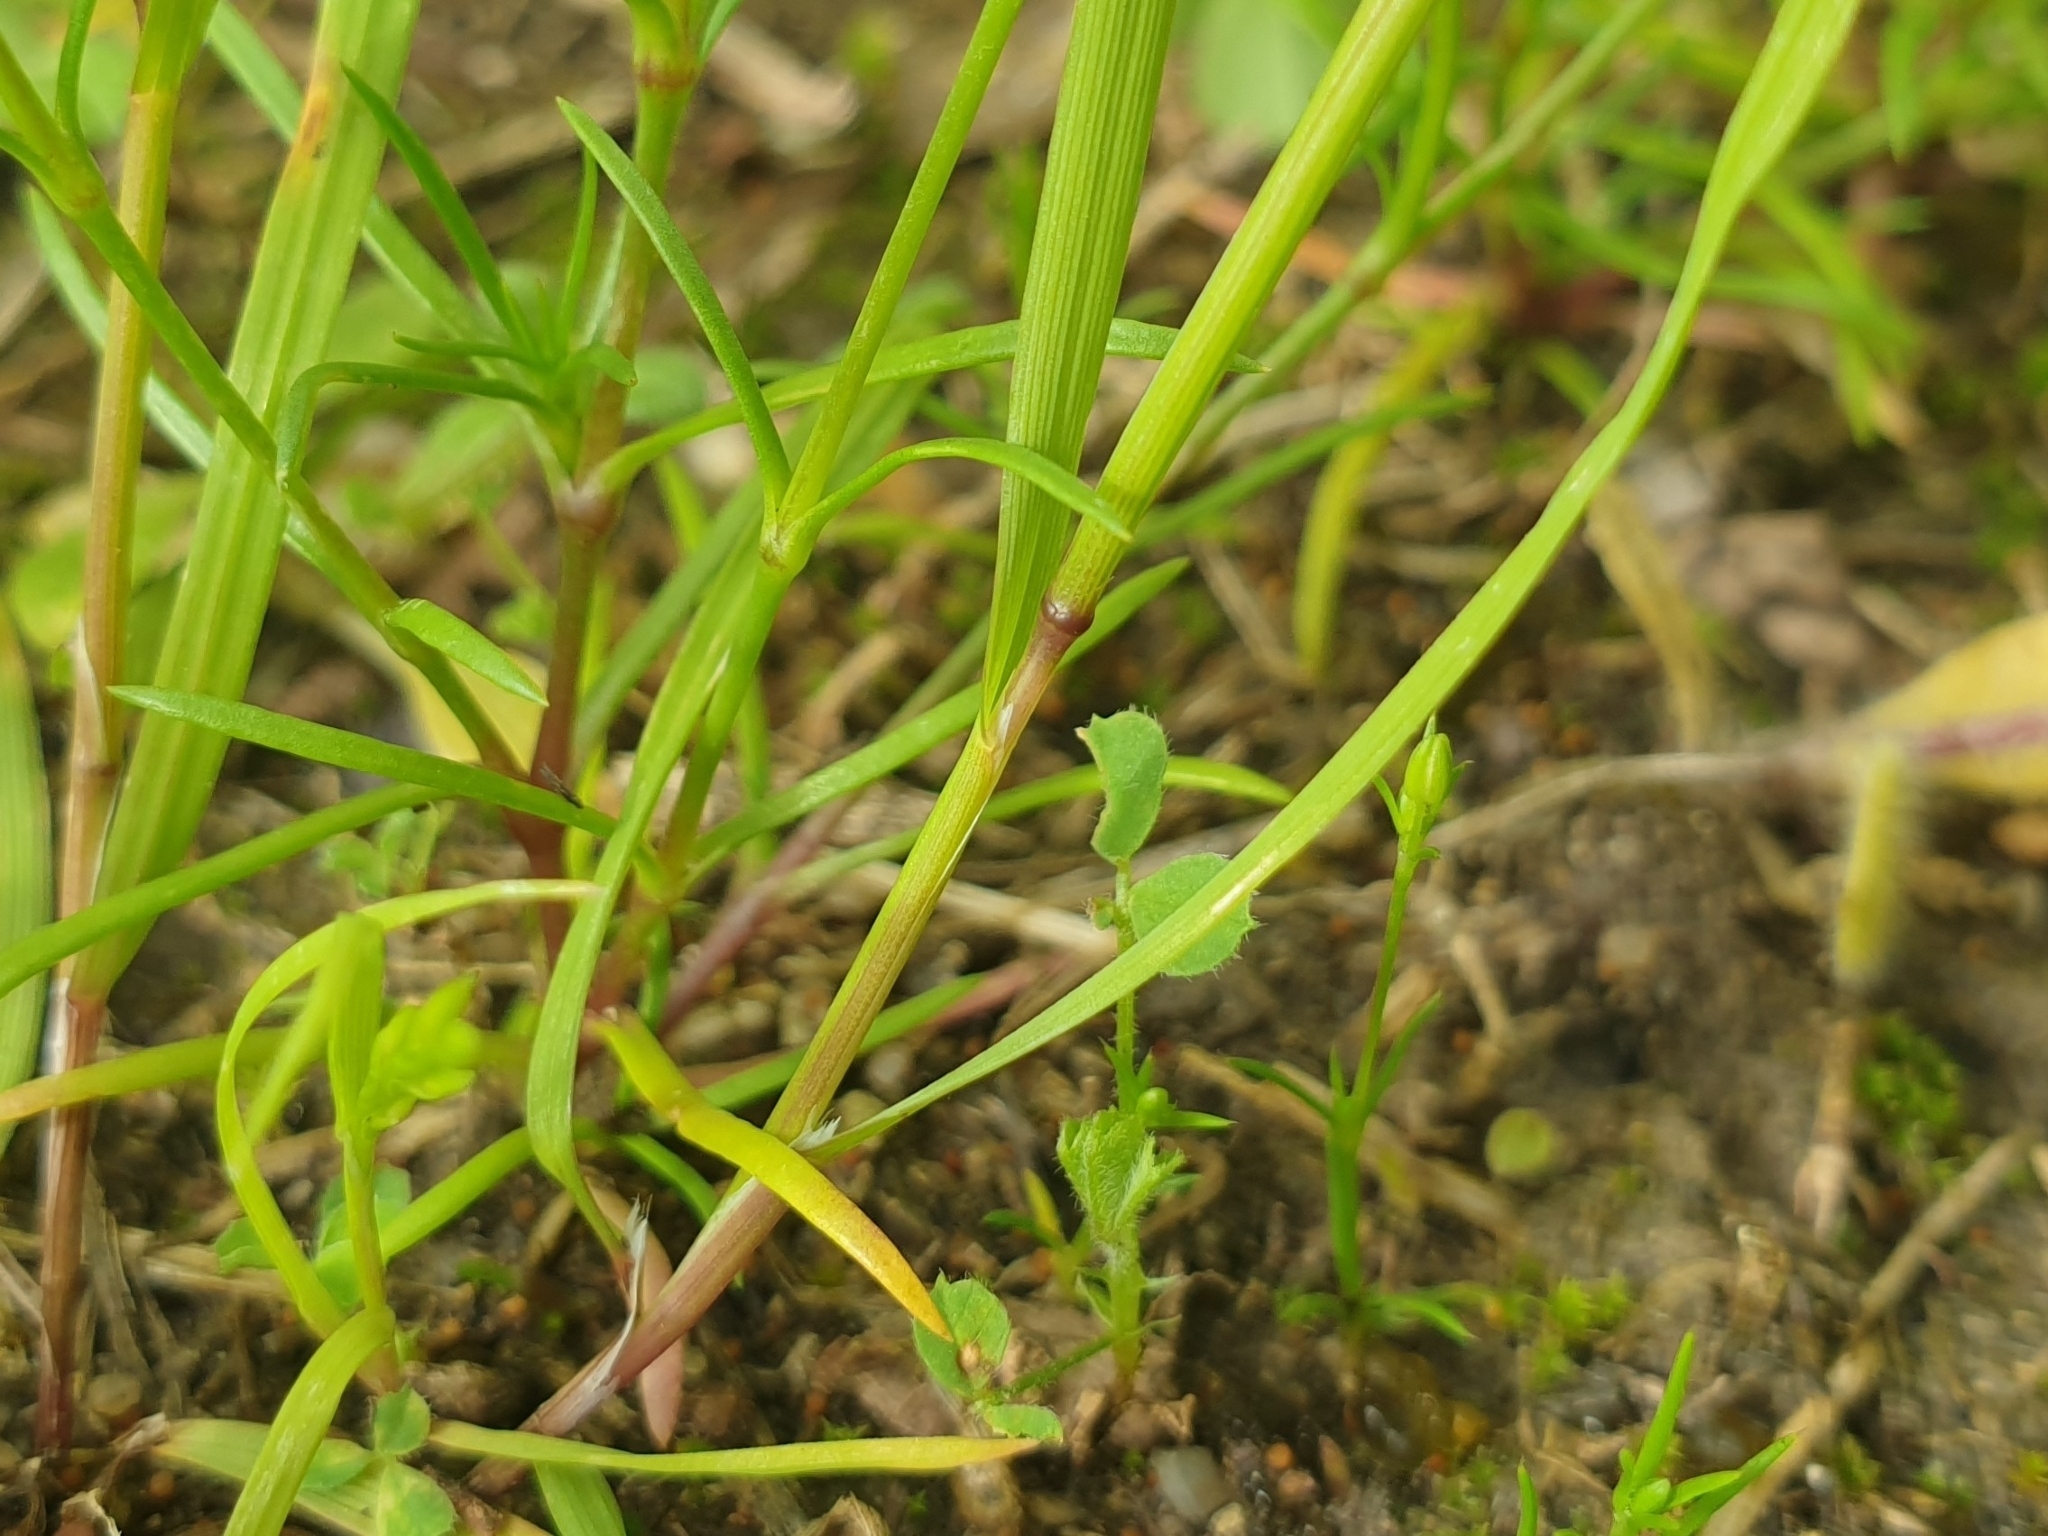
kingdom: Plantae
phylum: Tracheophyta
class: Liliopsida
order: Poales
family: Poaceae
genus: Catapodium
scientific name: Catapodium rigidum
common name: Fern-grass
